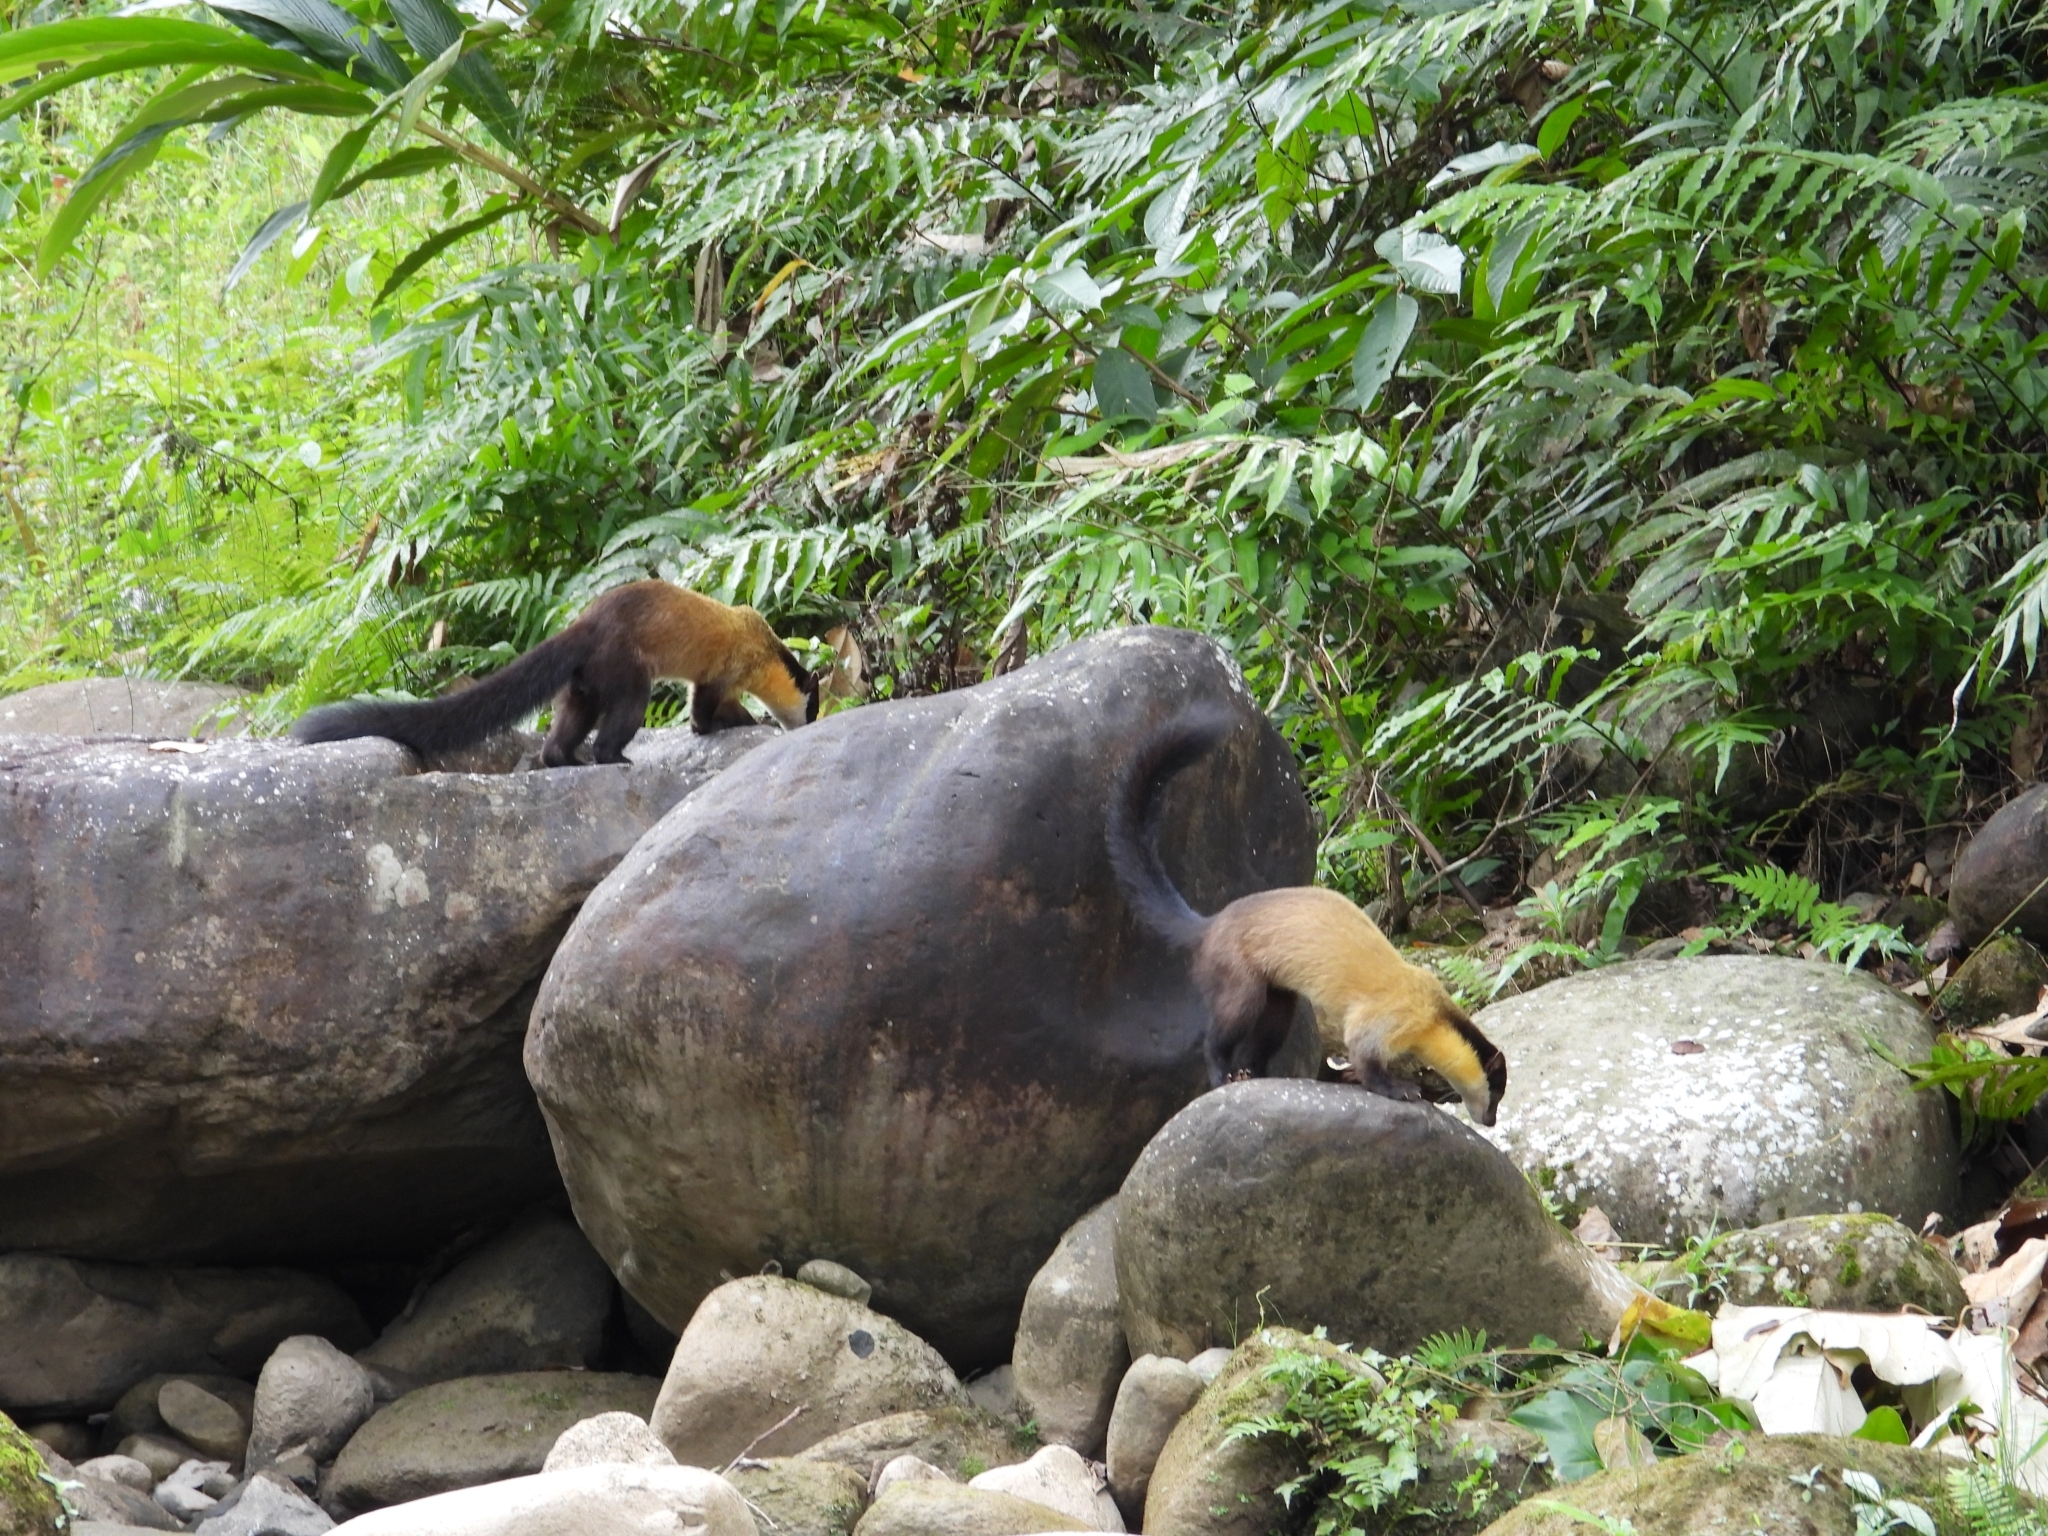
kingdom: Animalia
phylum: Chordata
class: Mammalia
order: Carnivora
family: Mustelidae
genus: Martes
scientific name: Martes flavigula
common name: Yellow-throated marten
